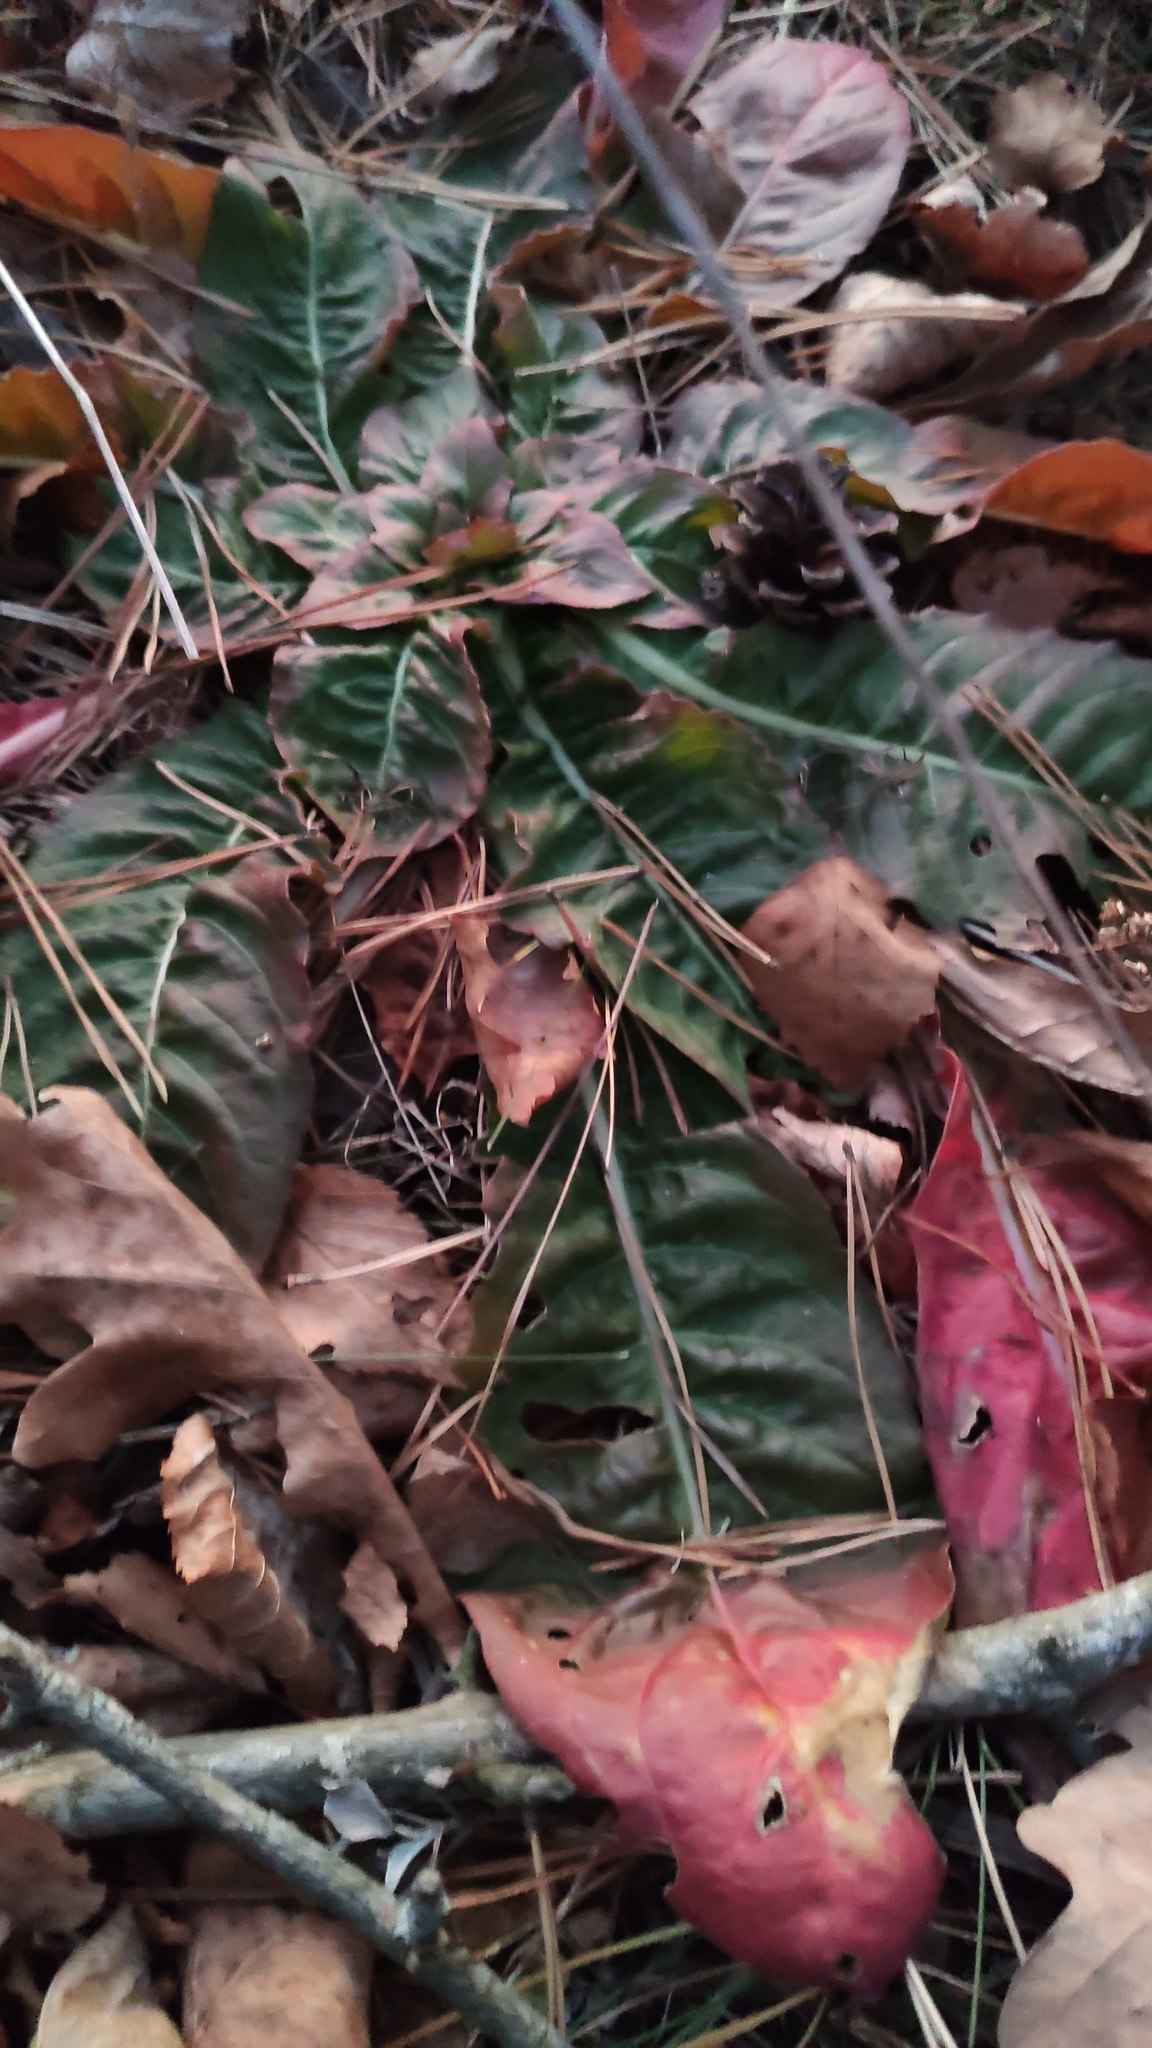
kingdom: Plantae
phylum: Tracheophyta
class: Magnoliopsida
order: Myrtales
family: Onagraceae
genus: Oenothera
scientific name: Oenothera
